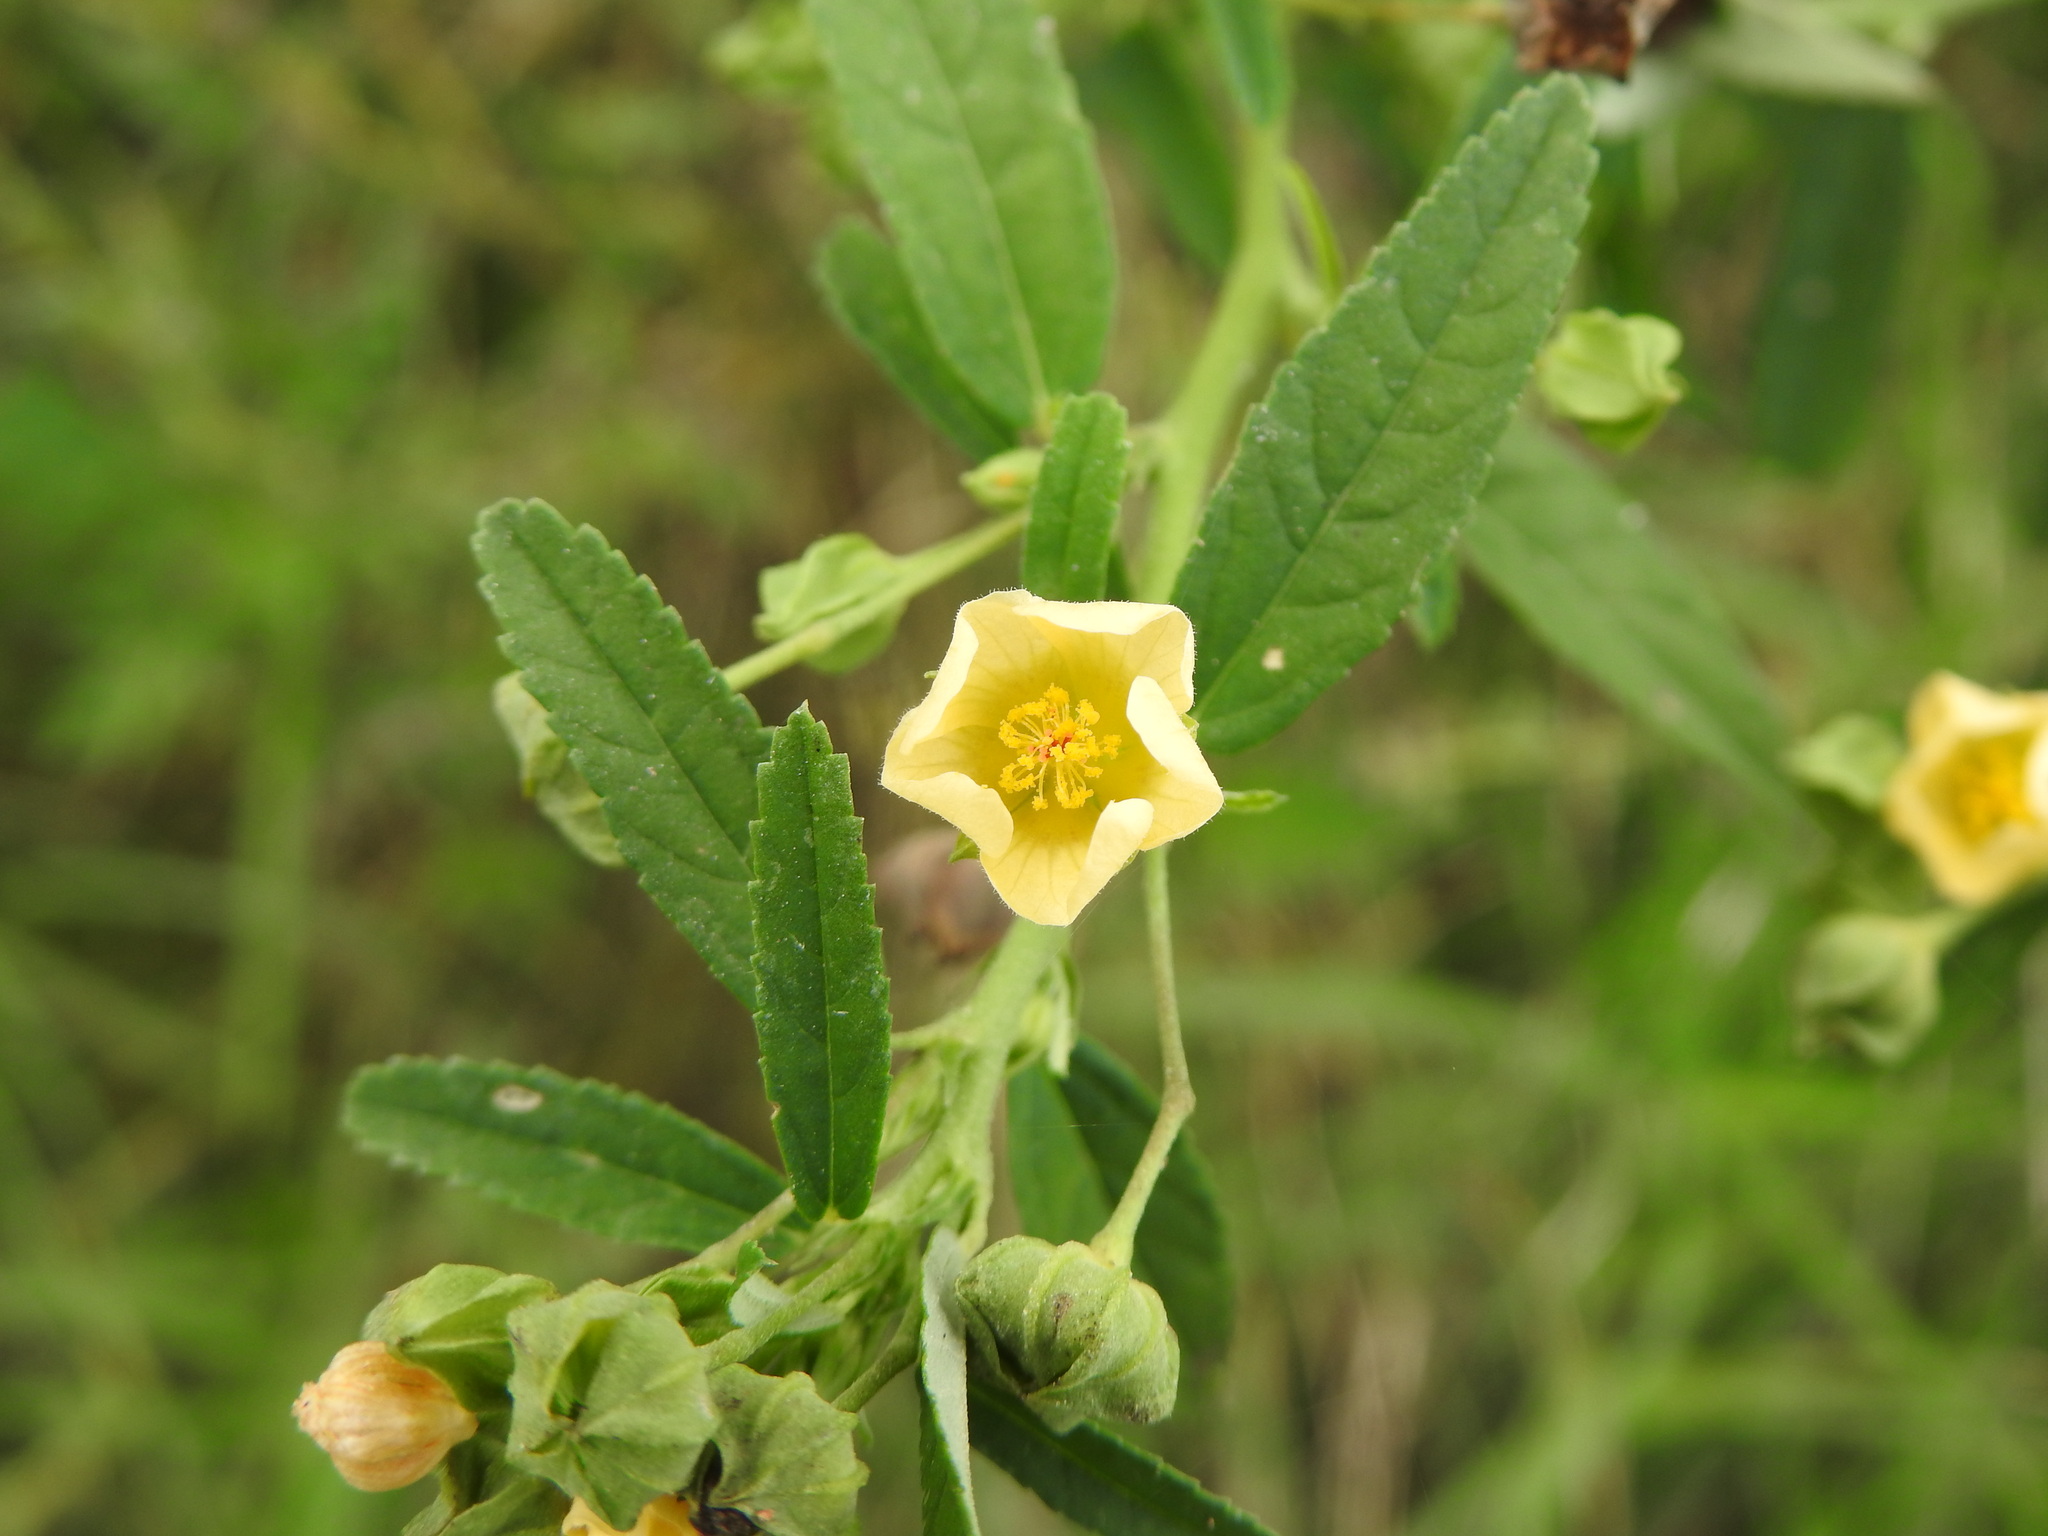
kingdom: Plantae
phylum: Tracheophyta
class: Magnoliopsida
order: Malvales
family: Malvaceae
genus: Sida
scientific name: Sida rhombifolia
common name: Queensland-hemp
